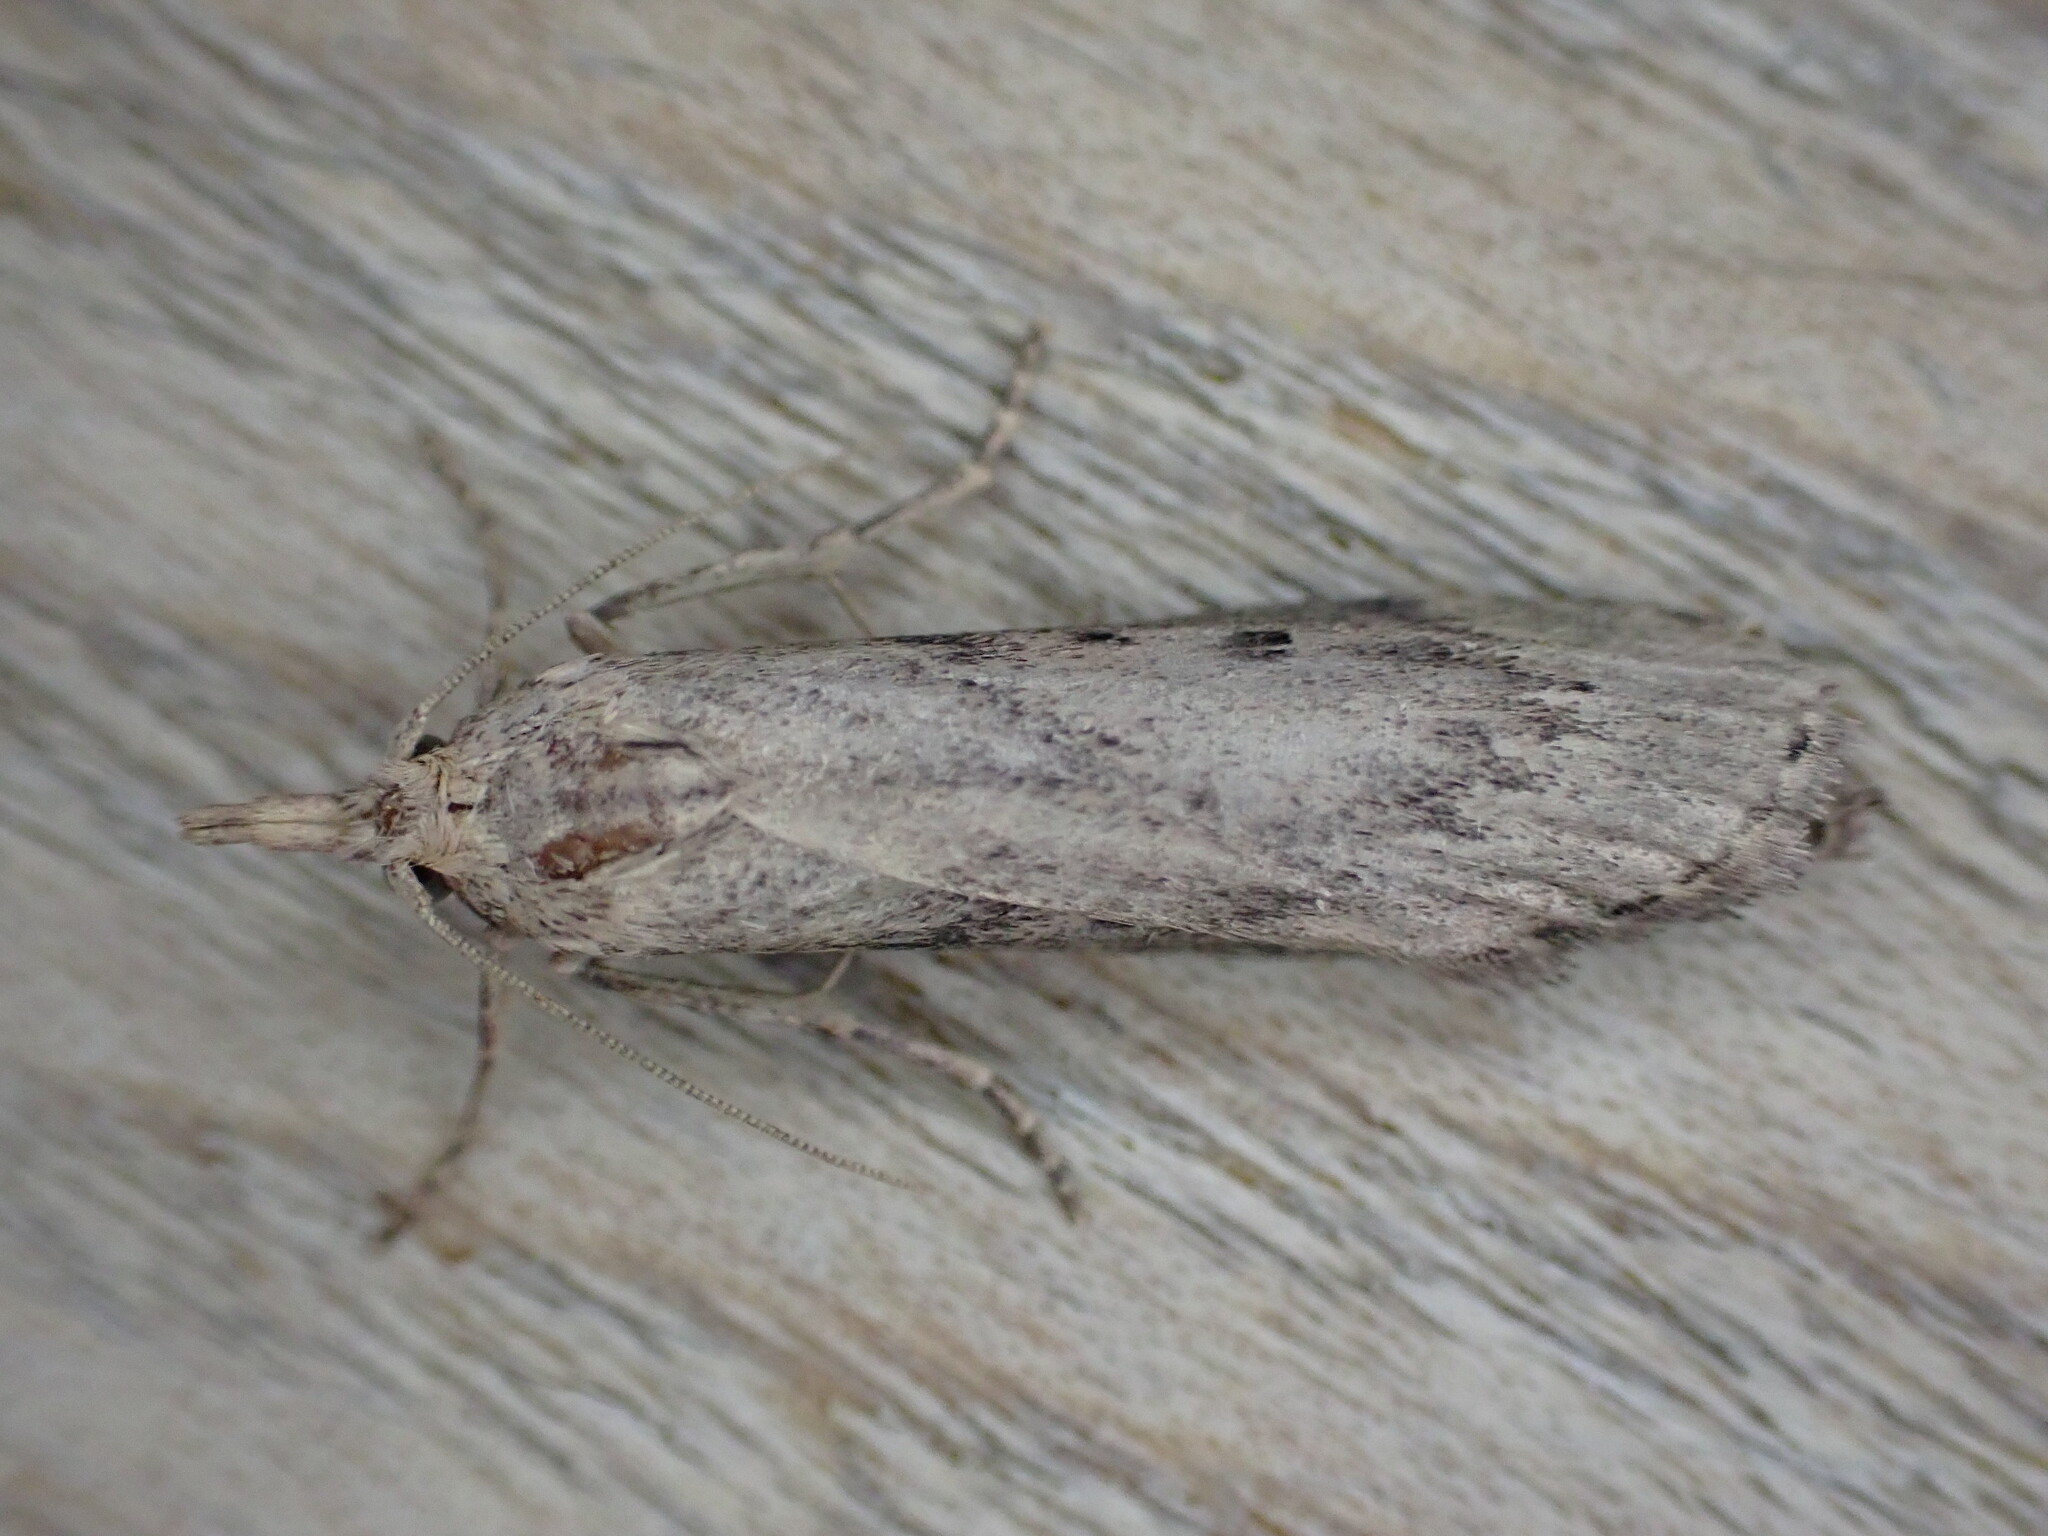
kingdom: Animalia
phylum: Arthropoda
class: Insecta
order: Lepidoptera
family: Pyralidae
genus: Aphomia
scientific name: Aphomia sociella
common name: Bee moth
